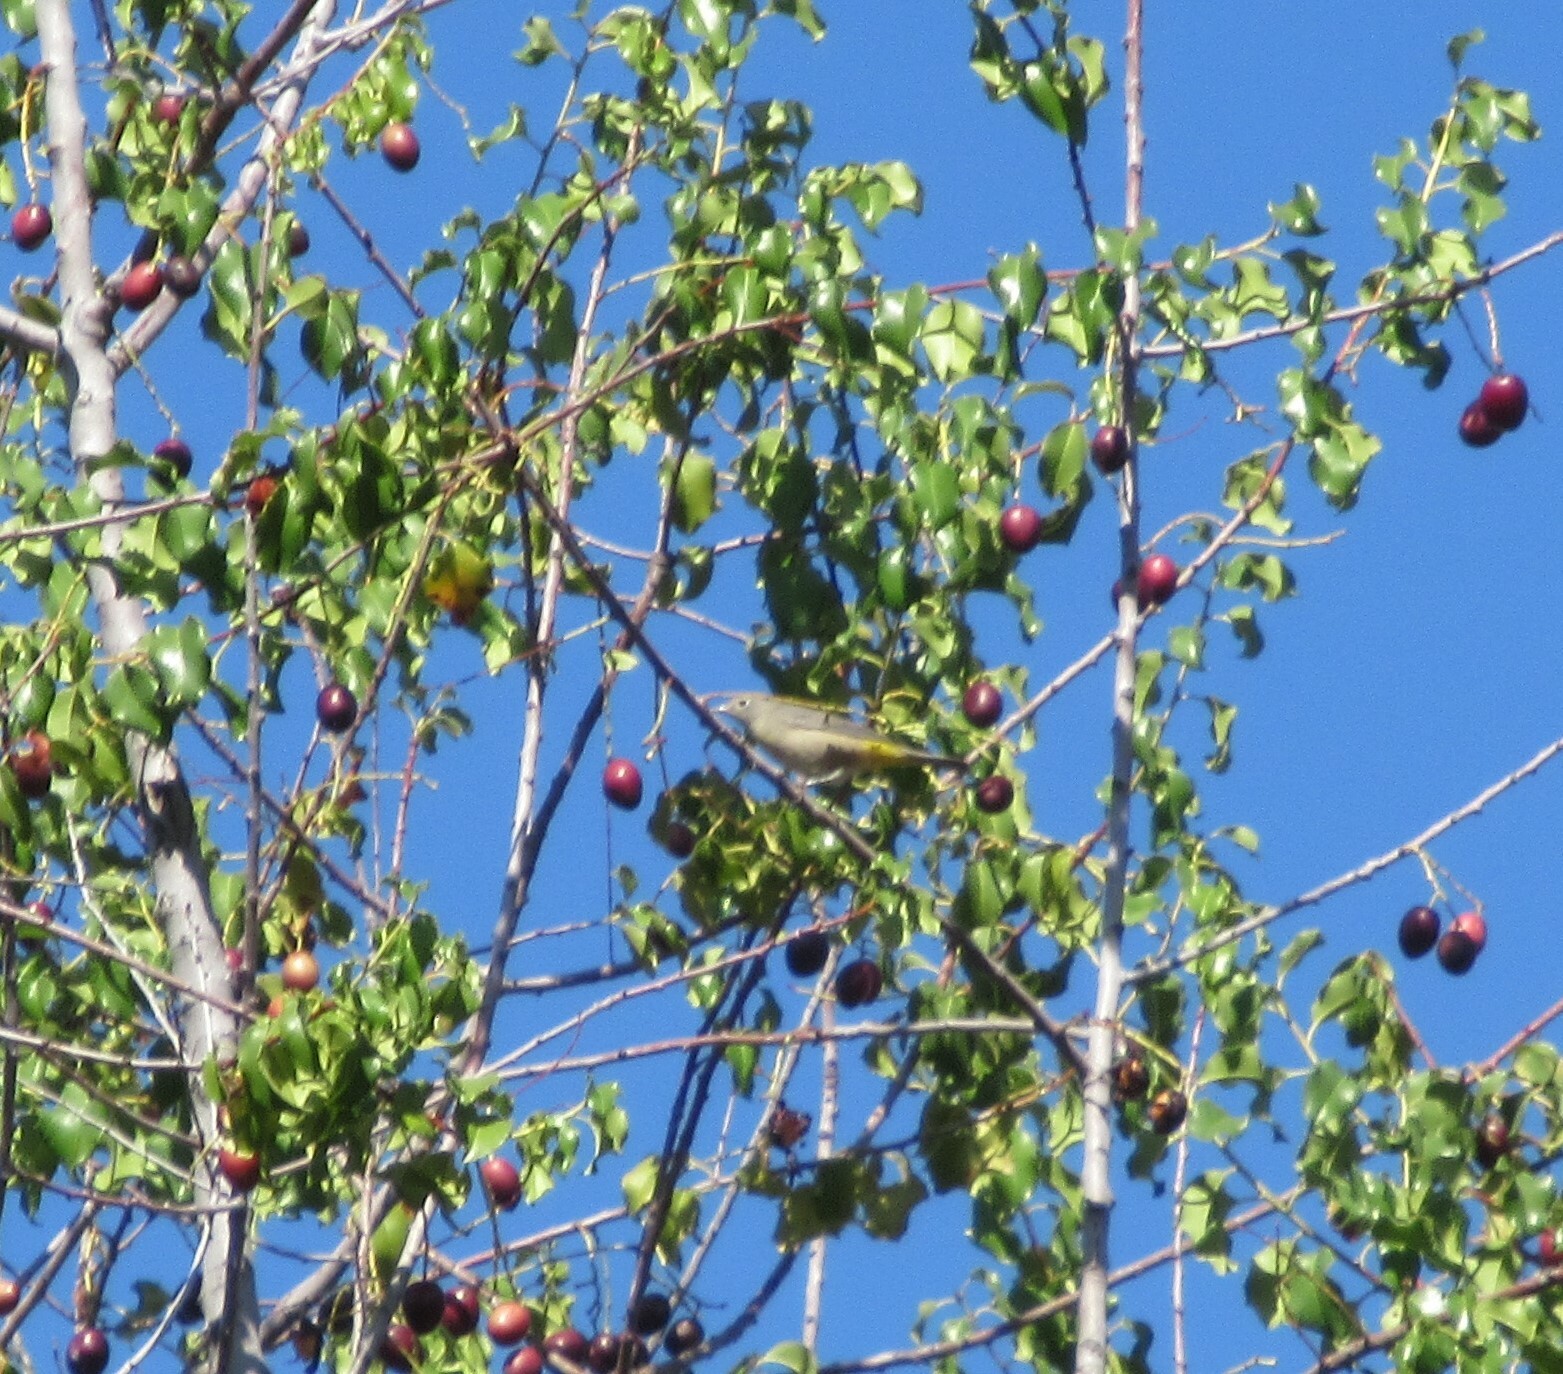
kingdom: Animalia
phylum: Chordata
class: Aves
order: Passeriformes
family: Parulidae
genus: Leiothlypis
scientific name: Leiothlypis virginiae
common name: Virginia's warbler
